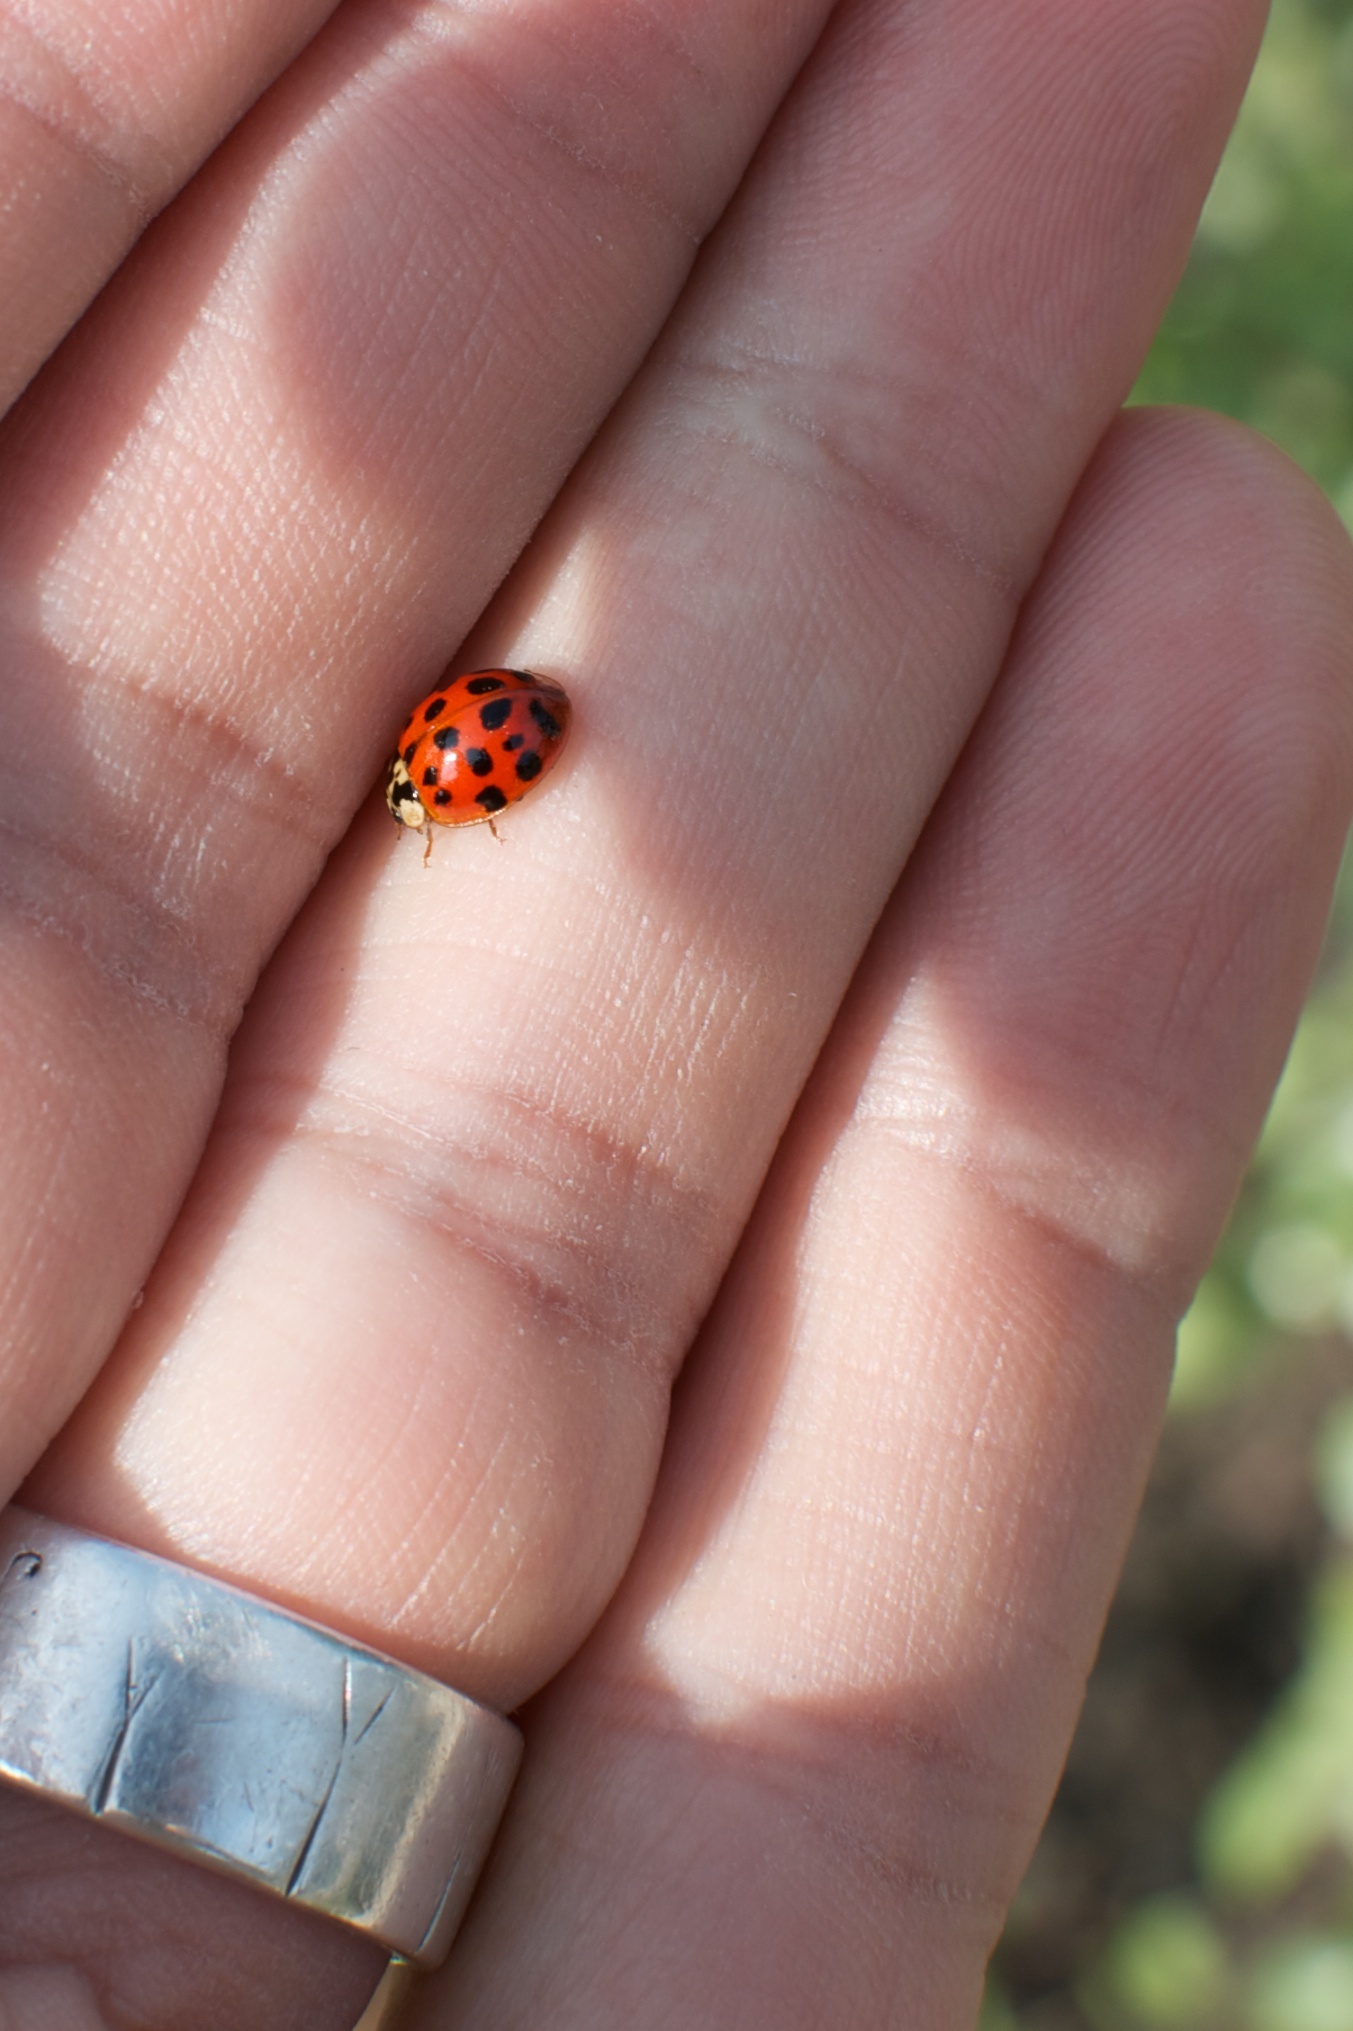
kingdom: Animalia
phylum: Arthropoda
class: Insecta
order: Coleoptera
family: Coccinellidae
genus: Harmonia
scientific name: Harmonia axyridis
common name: Harlequin ladybird
